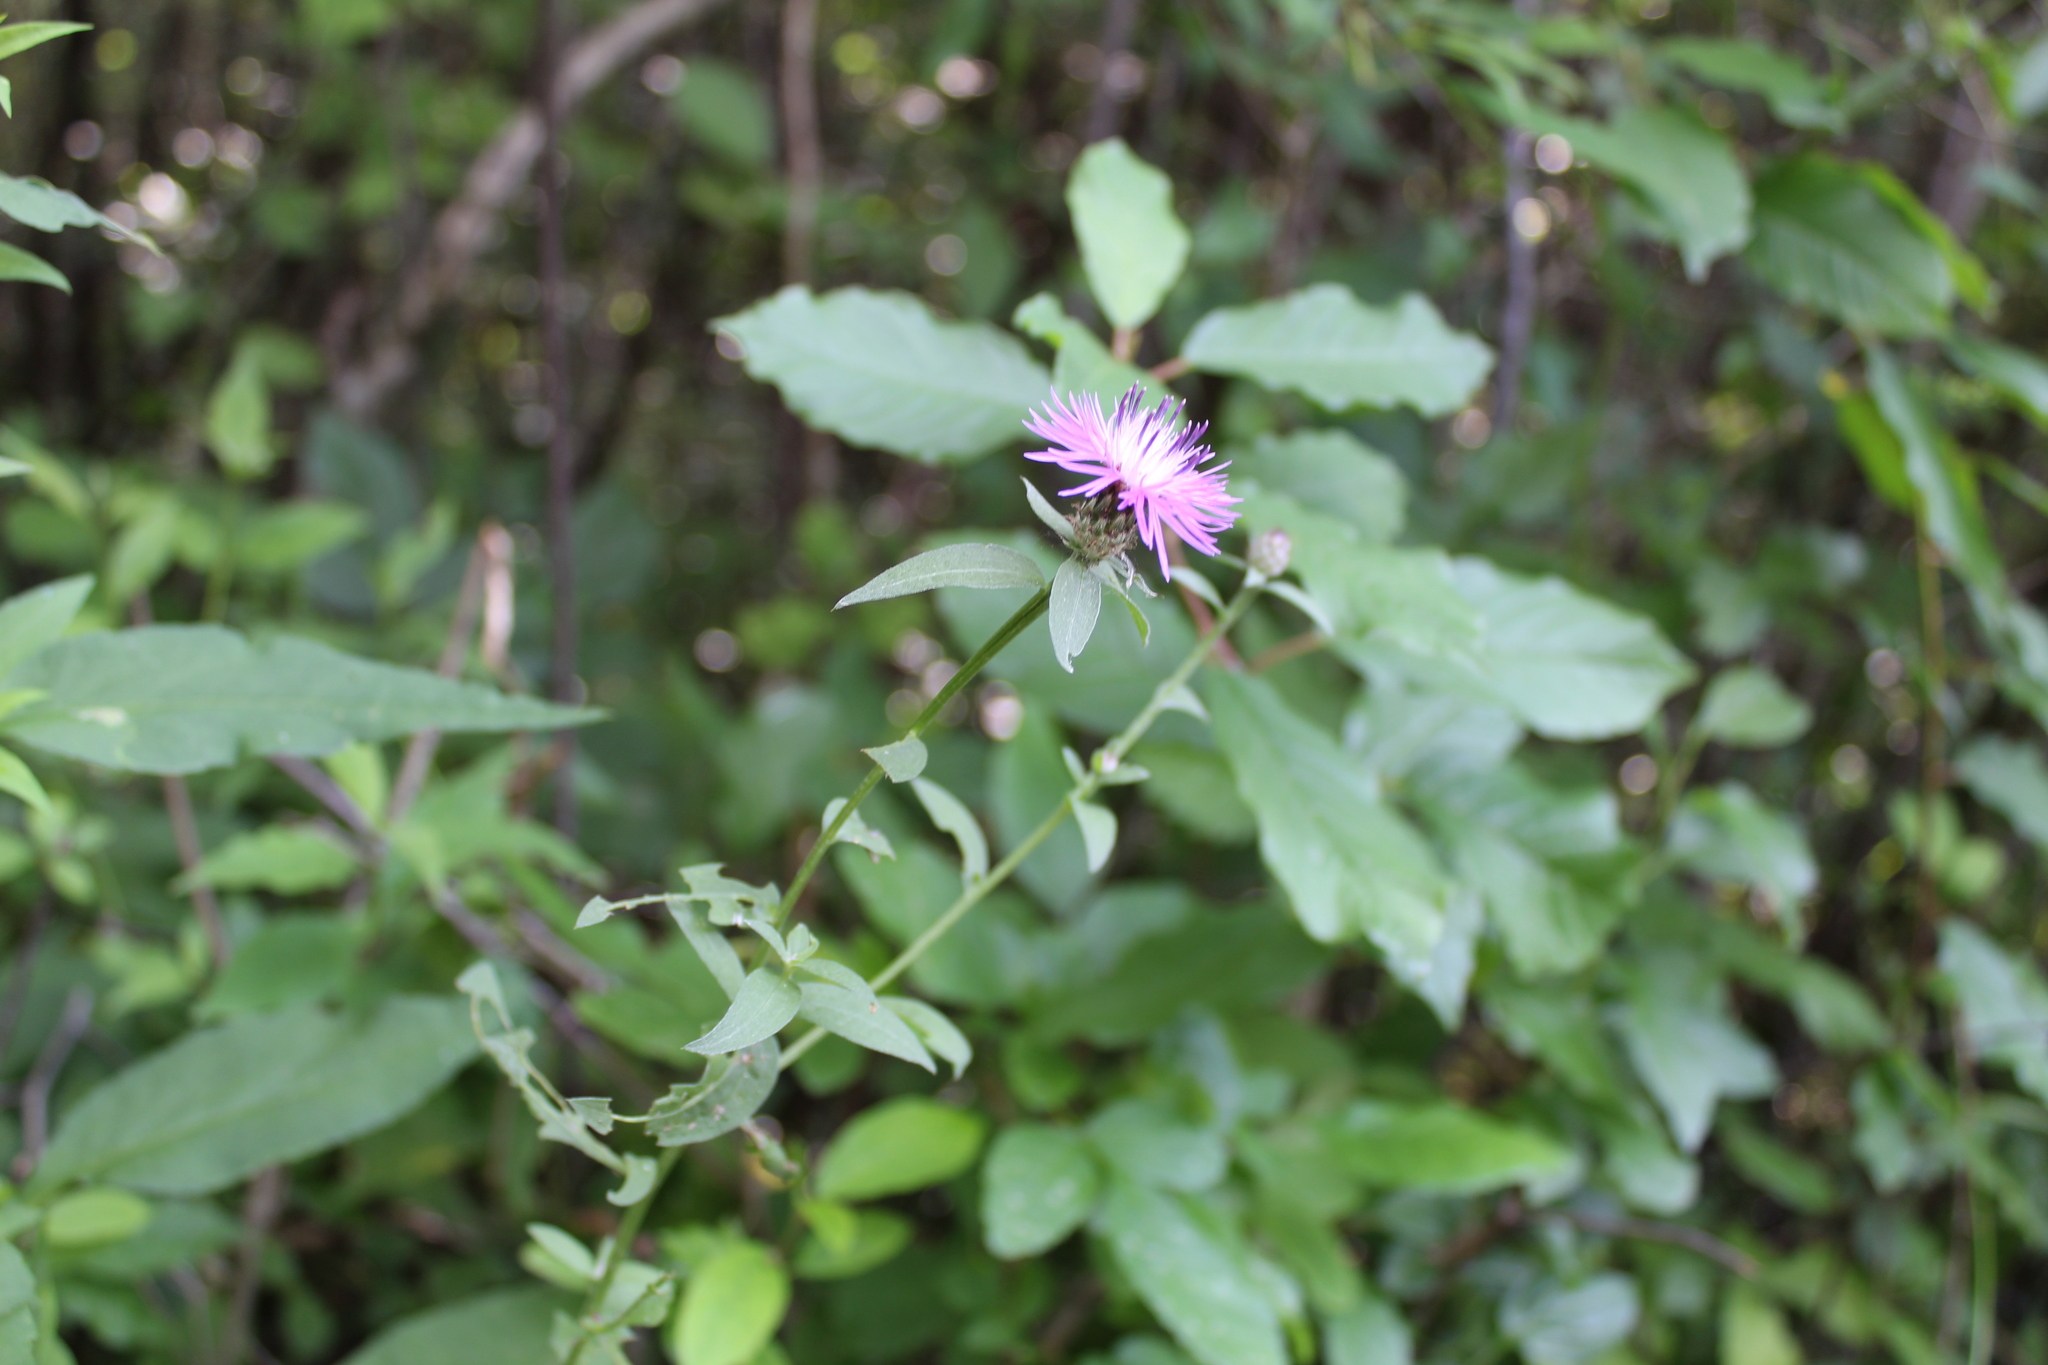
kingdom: Plantae
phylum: Tracheophyta
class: Magnoliopsida
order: Asterales
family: Asteraceae
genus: Centaurea
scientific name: Centaurea nigrescens
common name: Tyrol knapweed
